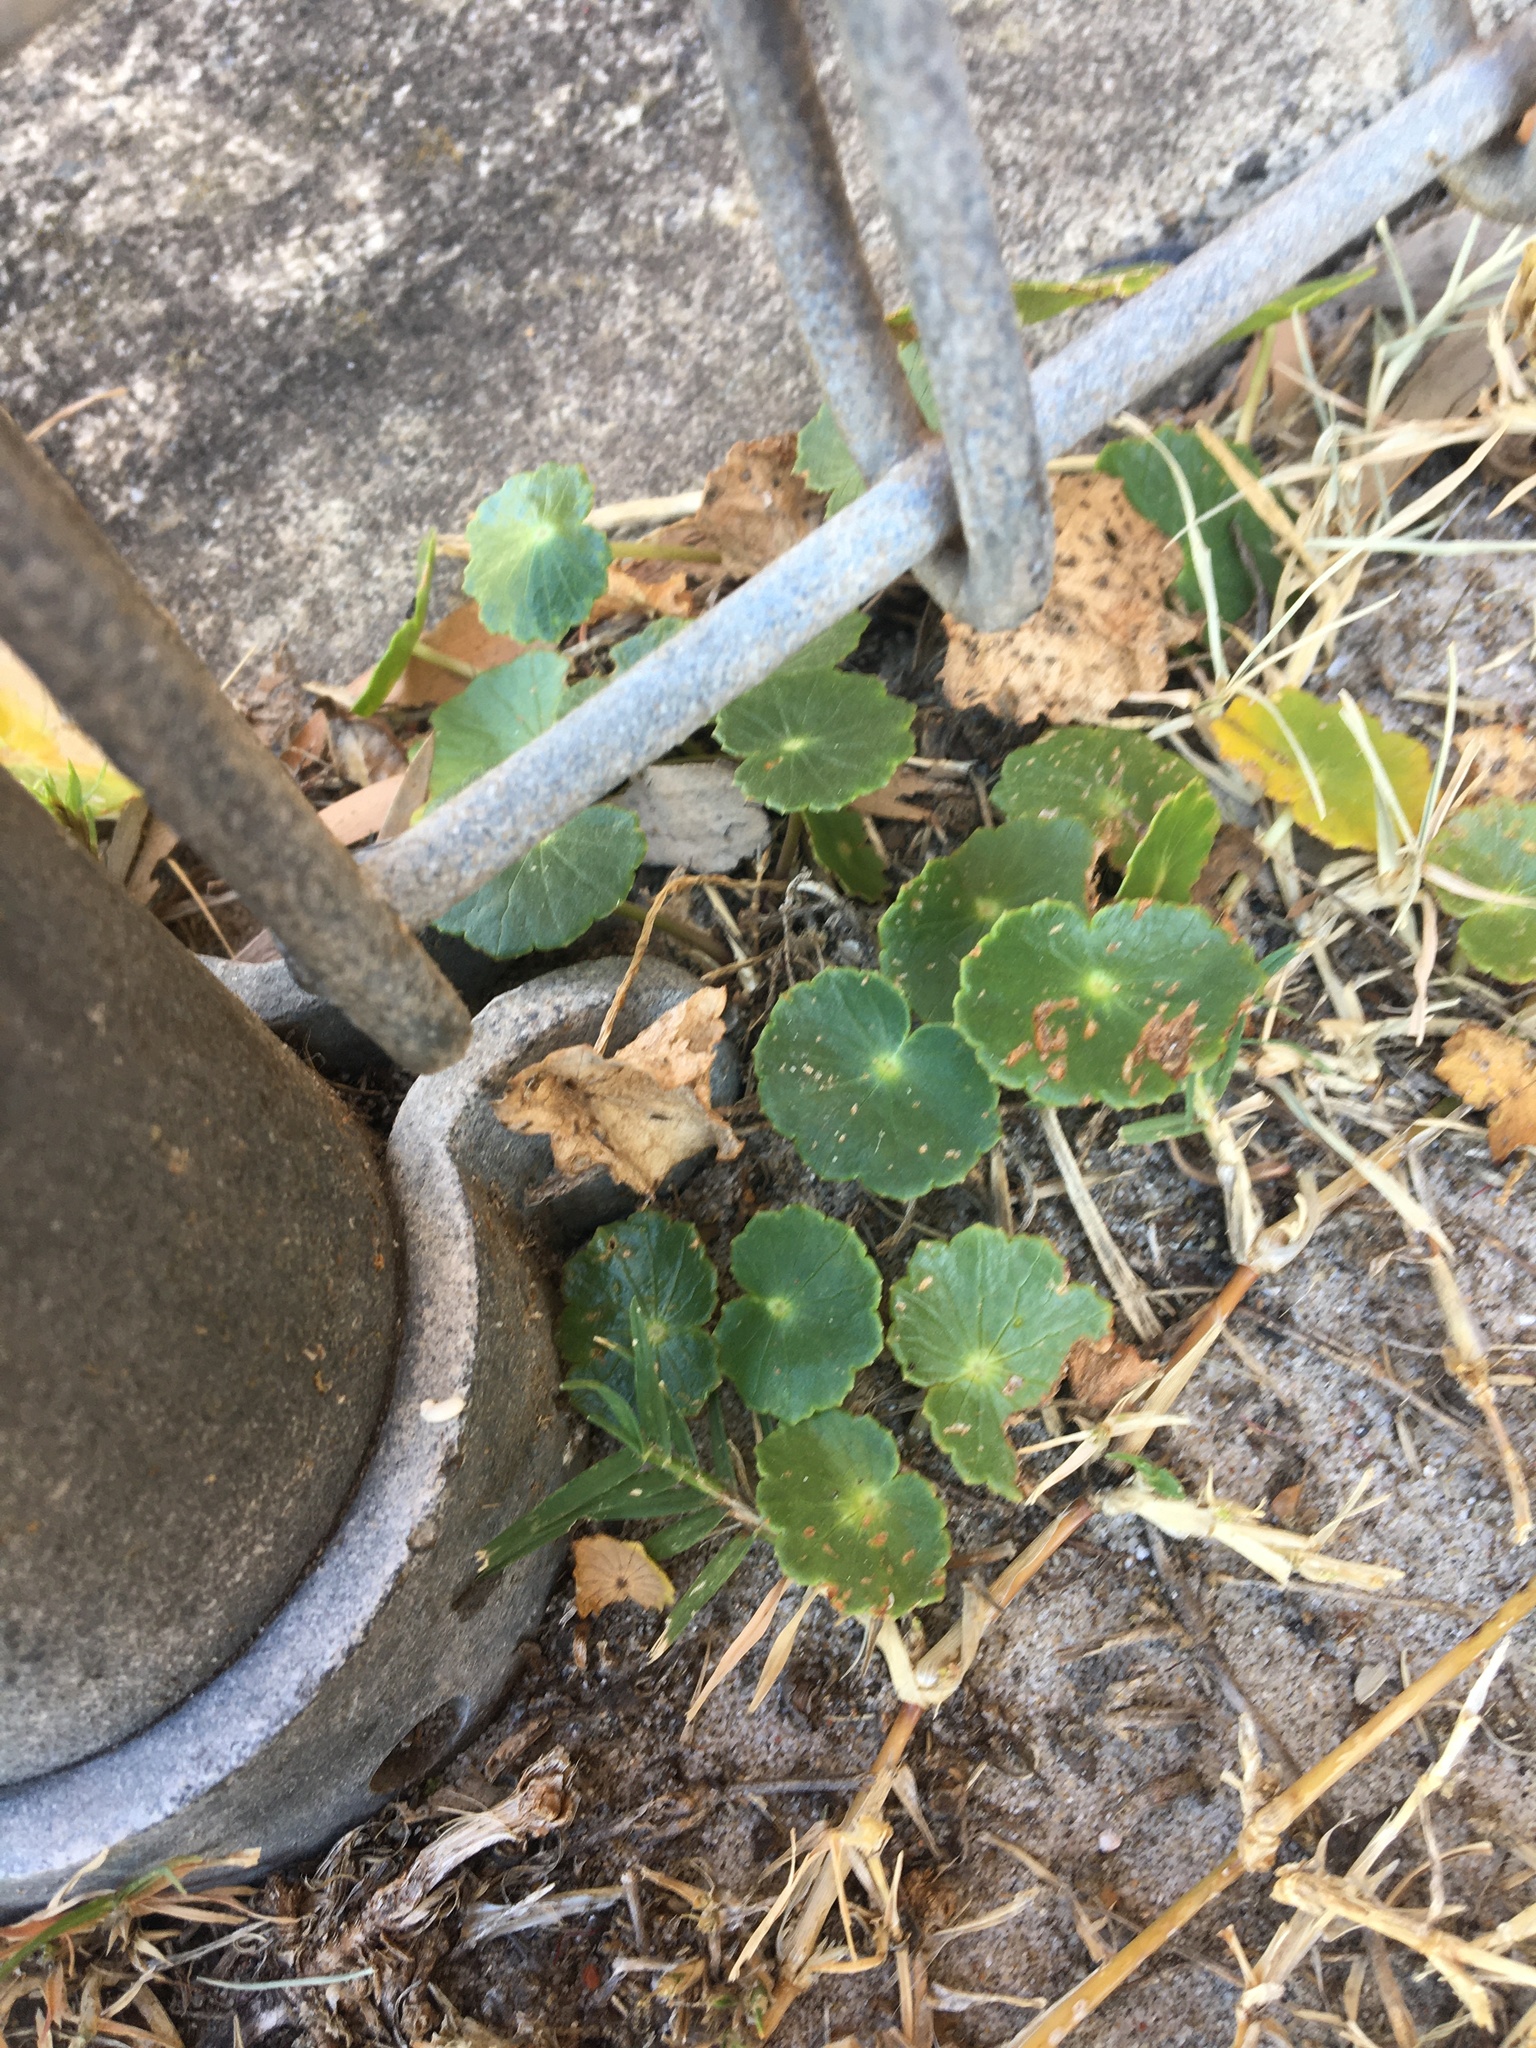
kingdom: Plantae
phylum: Tracheophyta
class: Magnoliopsida
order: Apiales
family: Araliaceae
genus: Hydrocotyle
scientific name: Hydrocotyle bonariensis
